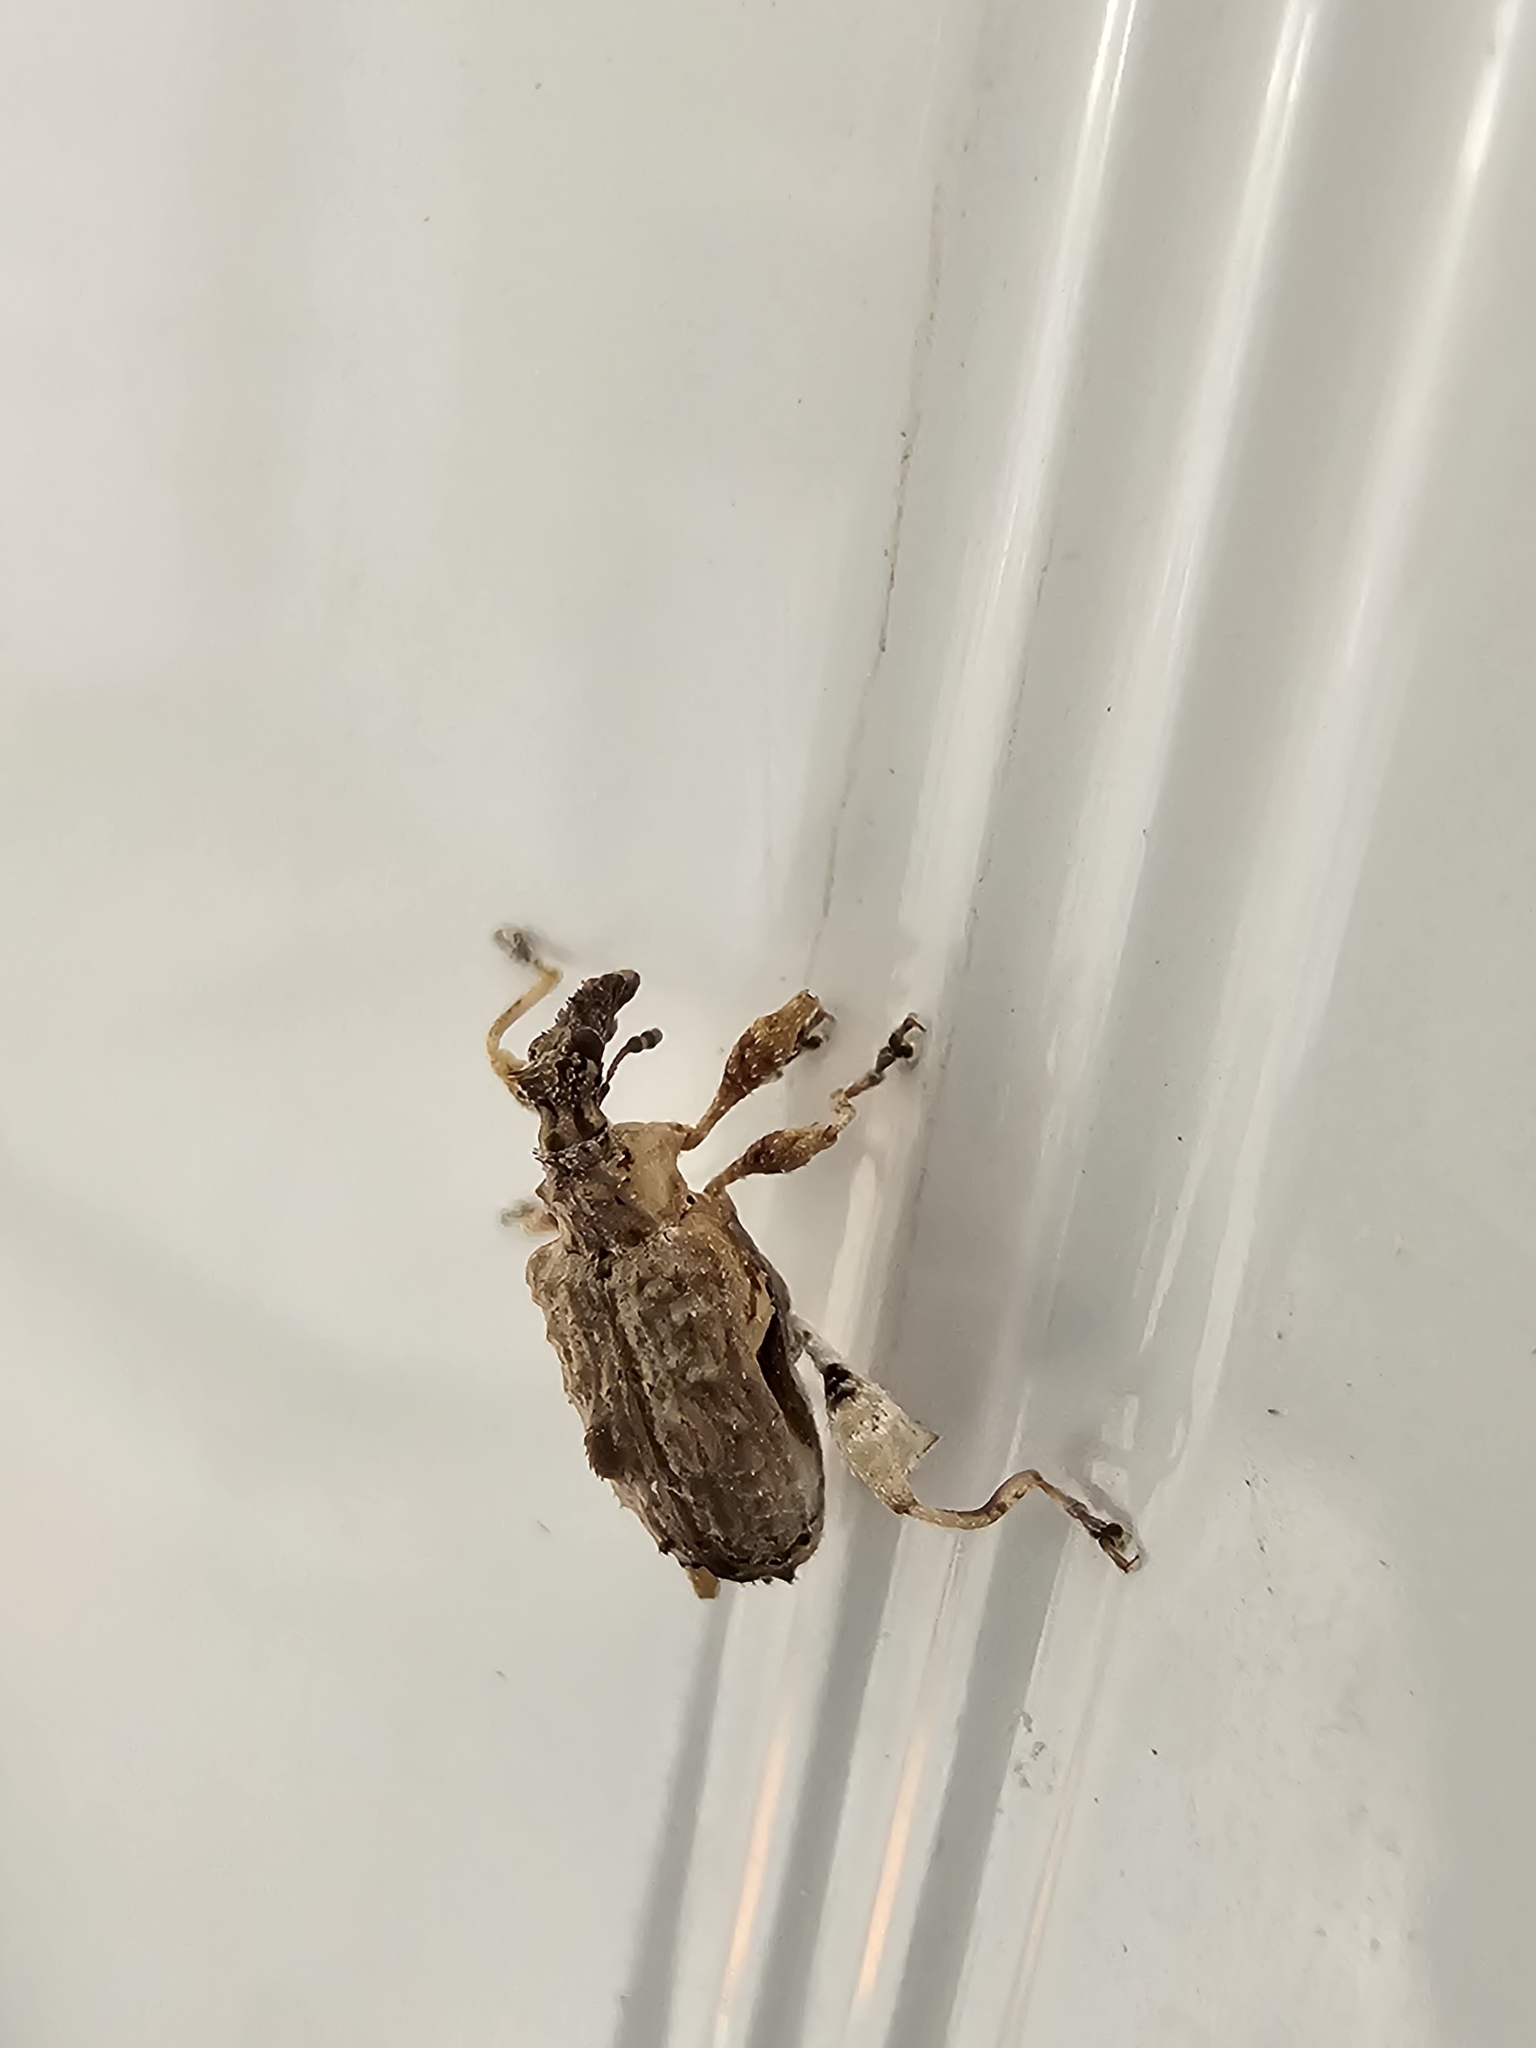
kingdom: Animalia
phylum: Arthropoda
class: Insecta
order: Coleoptera
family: Curculionidae
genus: Stephanorhynchus
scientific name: Stephanorhynchus curvipes
